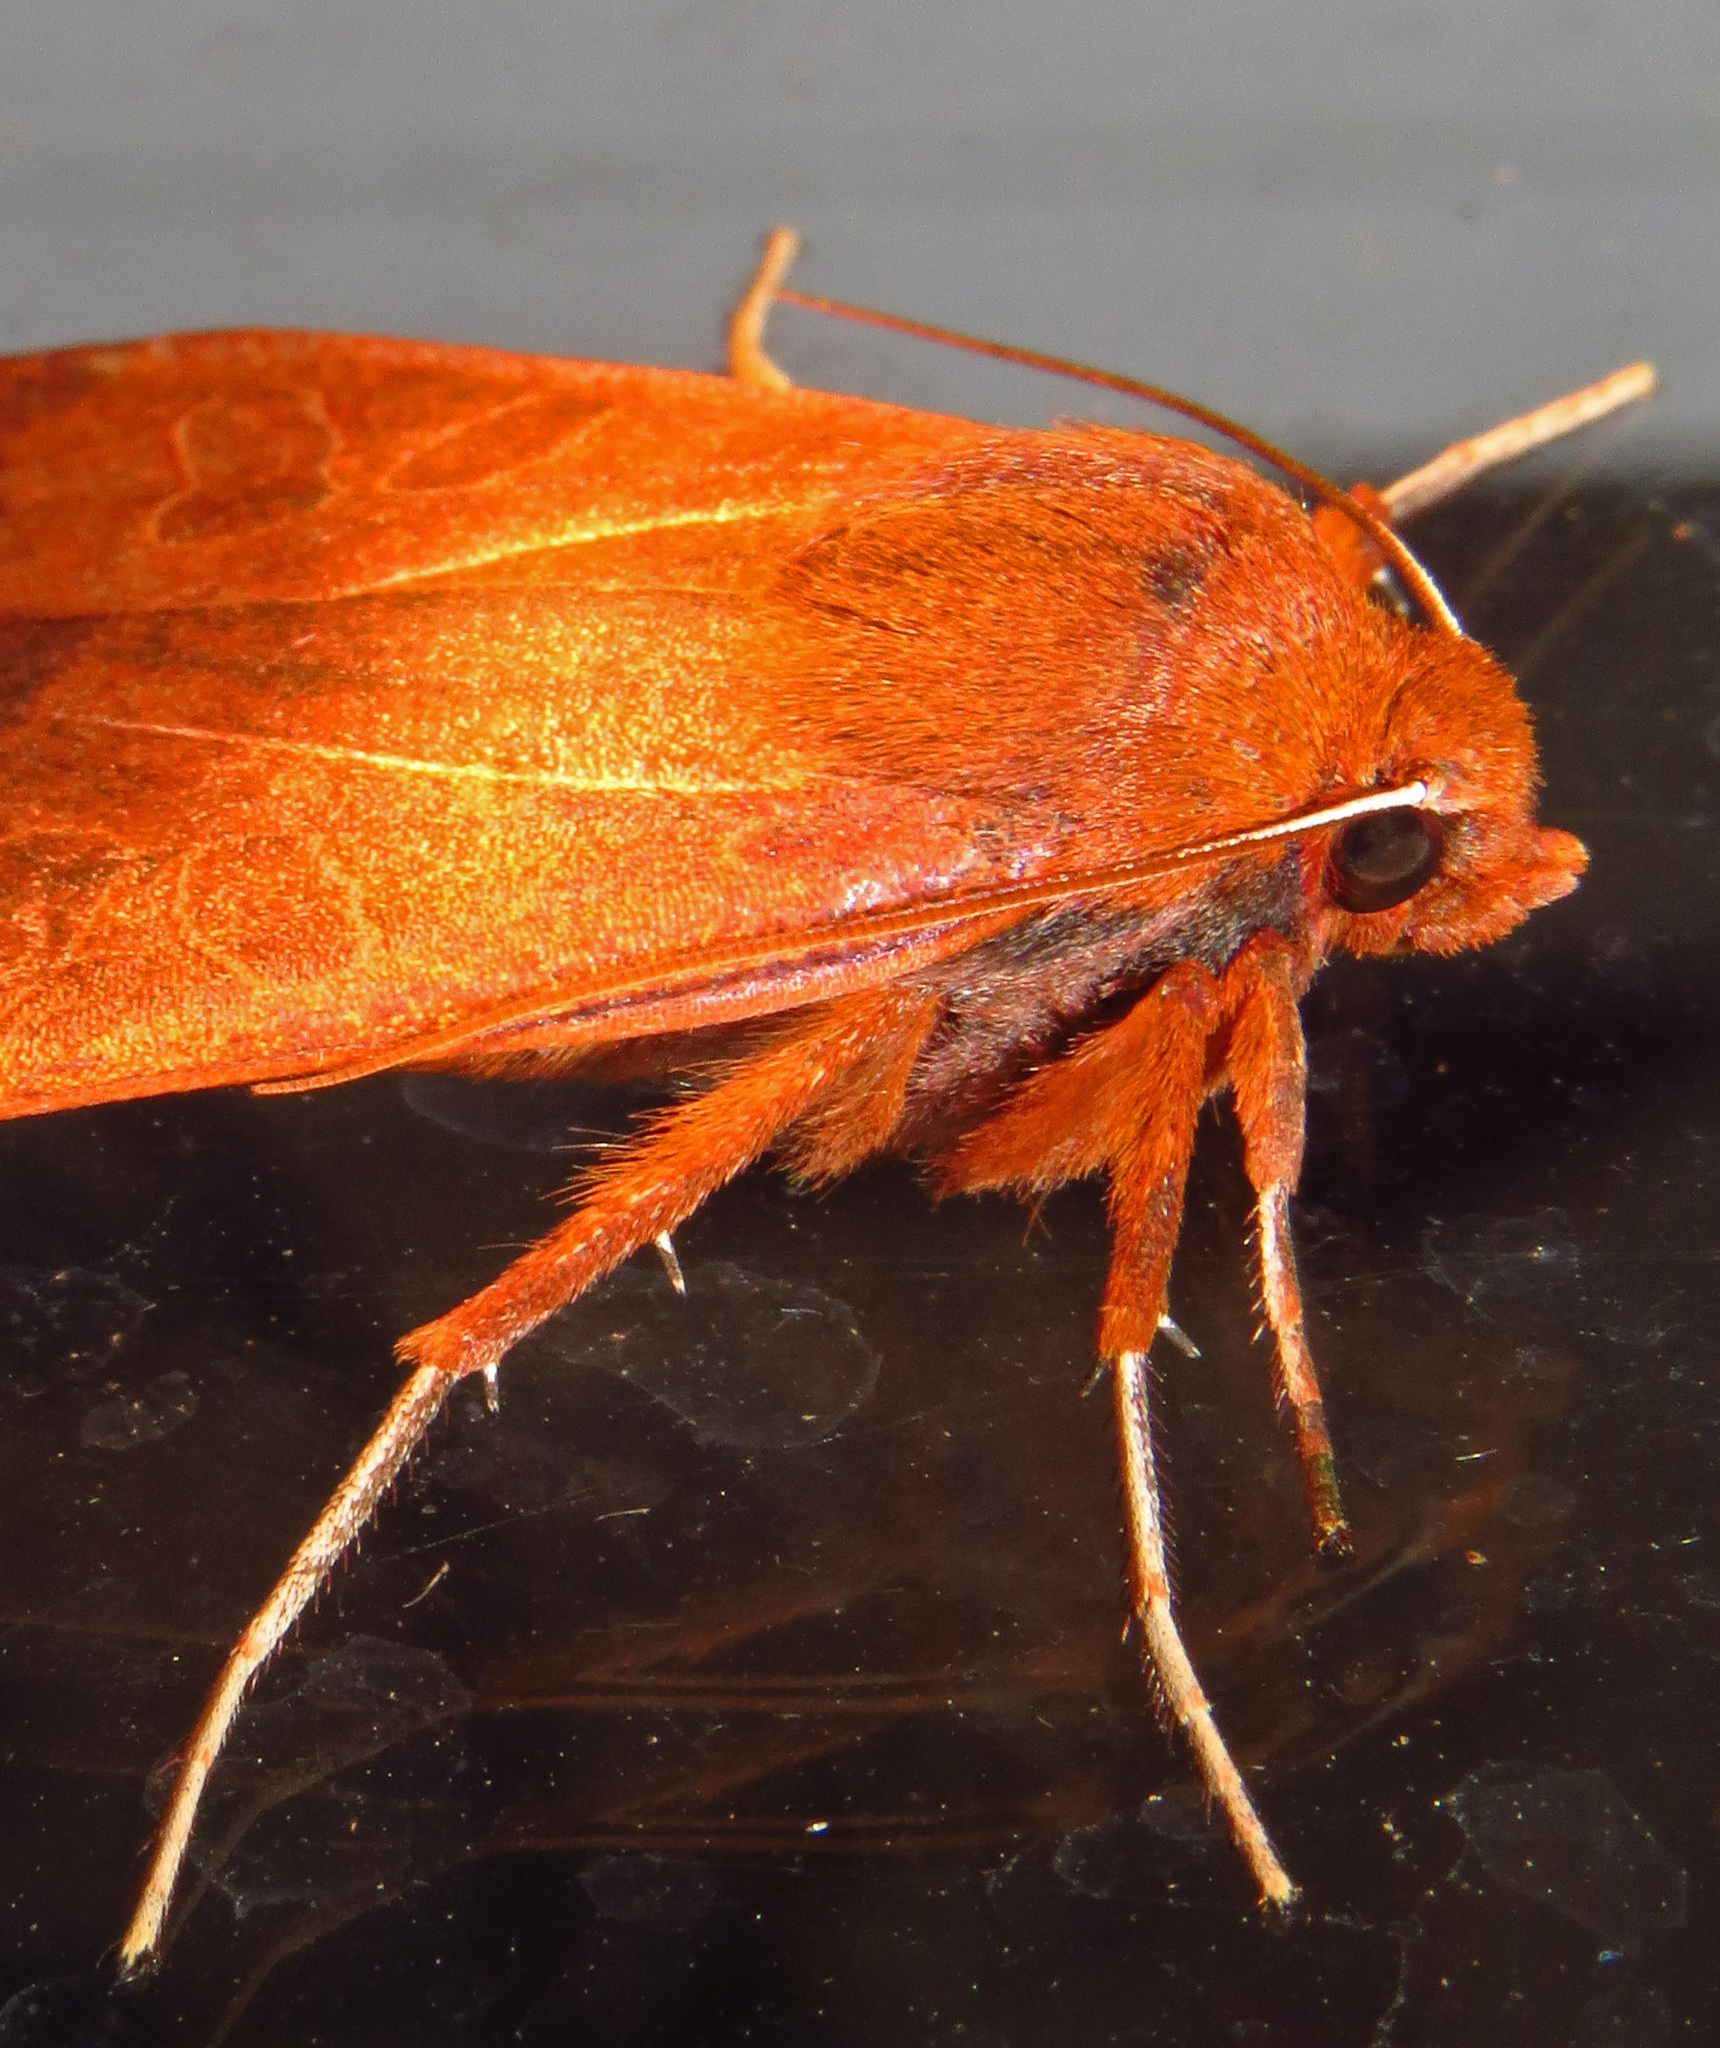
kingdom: Animalia
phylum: Arthropoda
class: Insecta
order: Lepidoptera
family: Noctuidae
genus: Metaxaglaea
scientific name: Metaxaglaea viatica
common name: Roadside sallow
